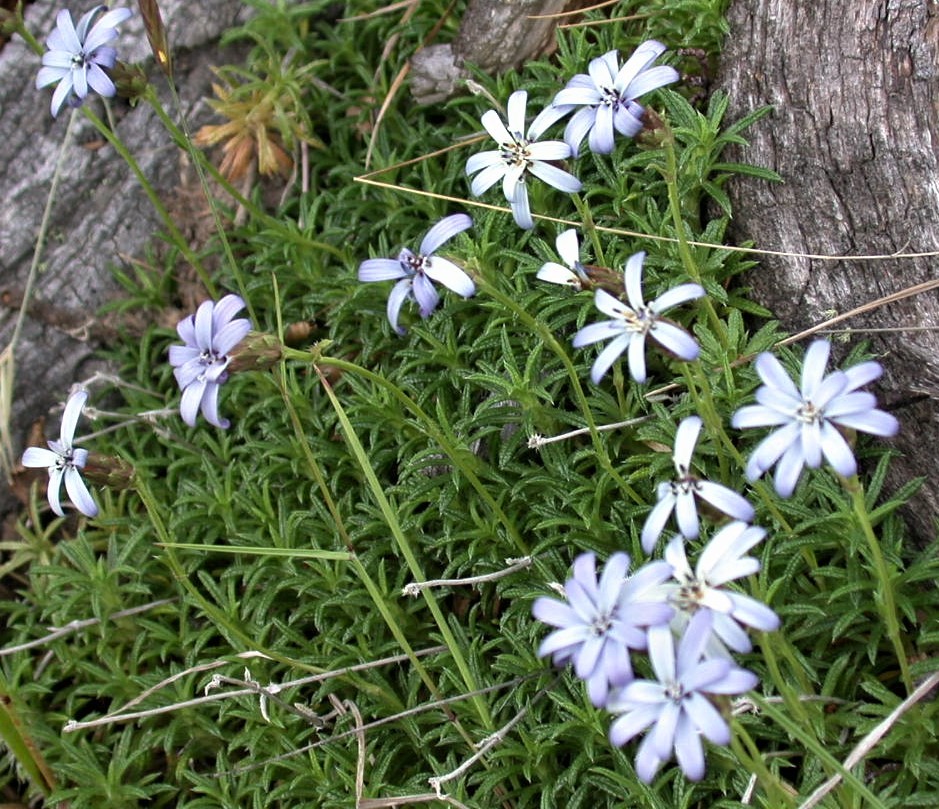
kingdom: Plantae
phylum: Tracheophyta
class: Magnoliopsida
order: Asterales
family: Asteraceae
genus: Perezia
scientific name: Perezia recurvata
